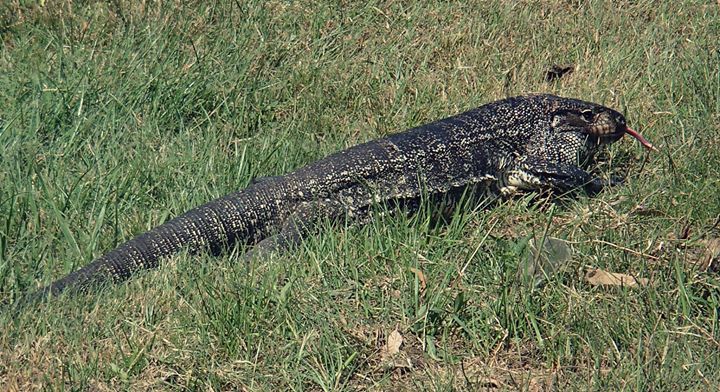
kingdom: Animalia
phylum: Chordata
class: Squamata
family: Teiidae
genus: Salvator
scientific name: Salvator merianae
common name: Argentine black and white tegu
